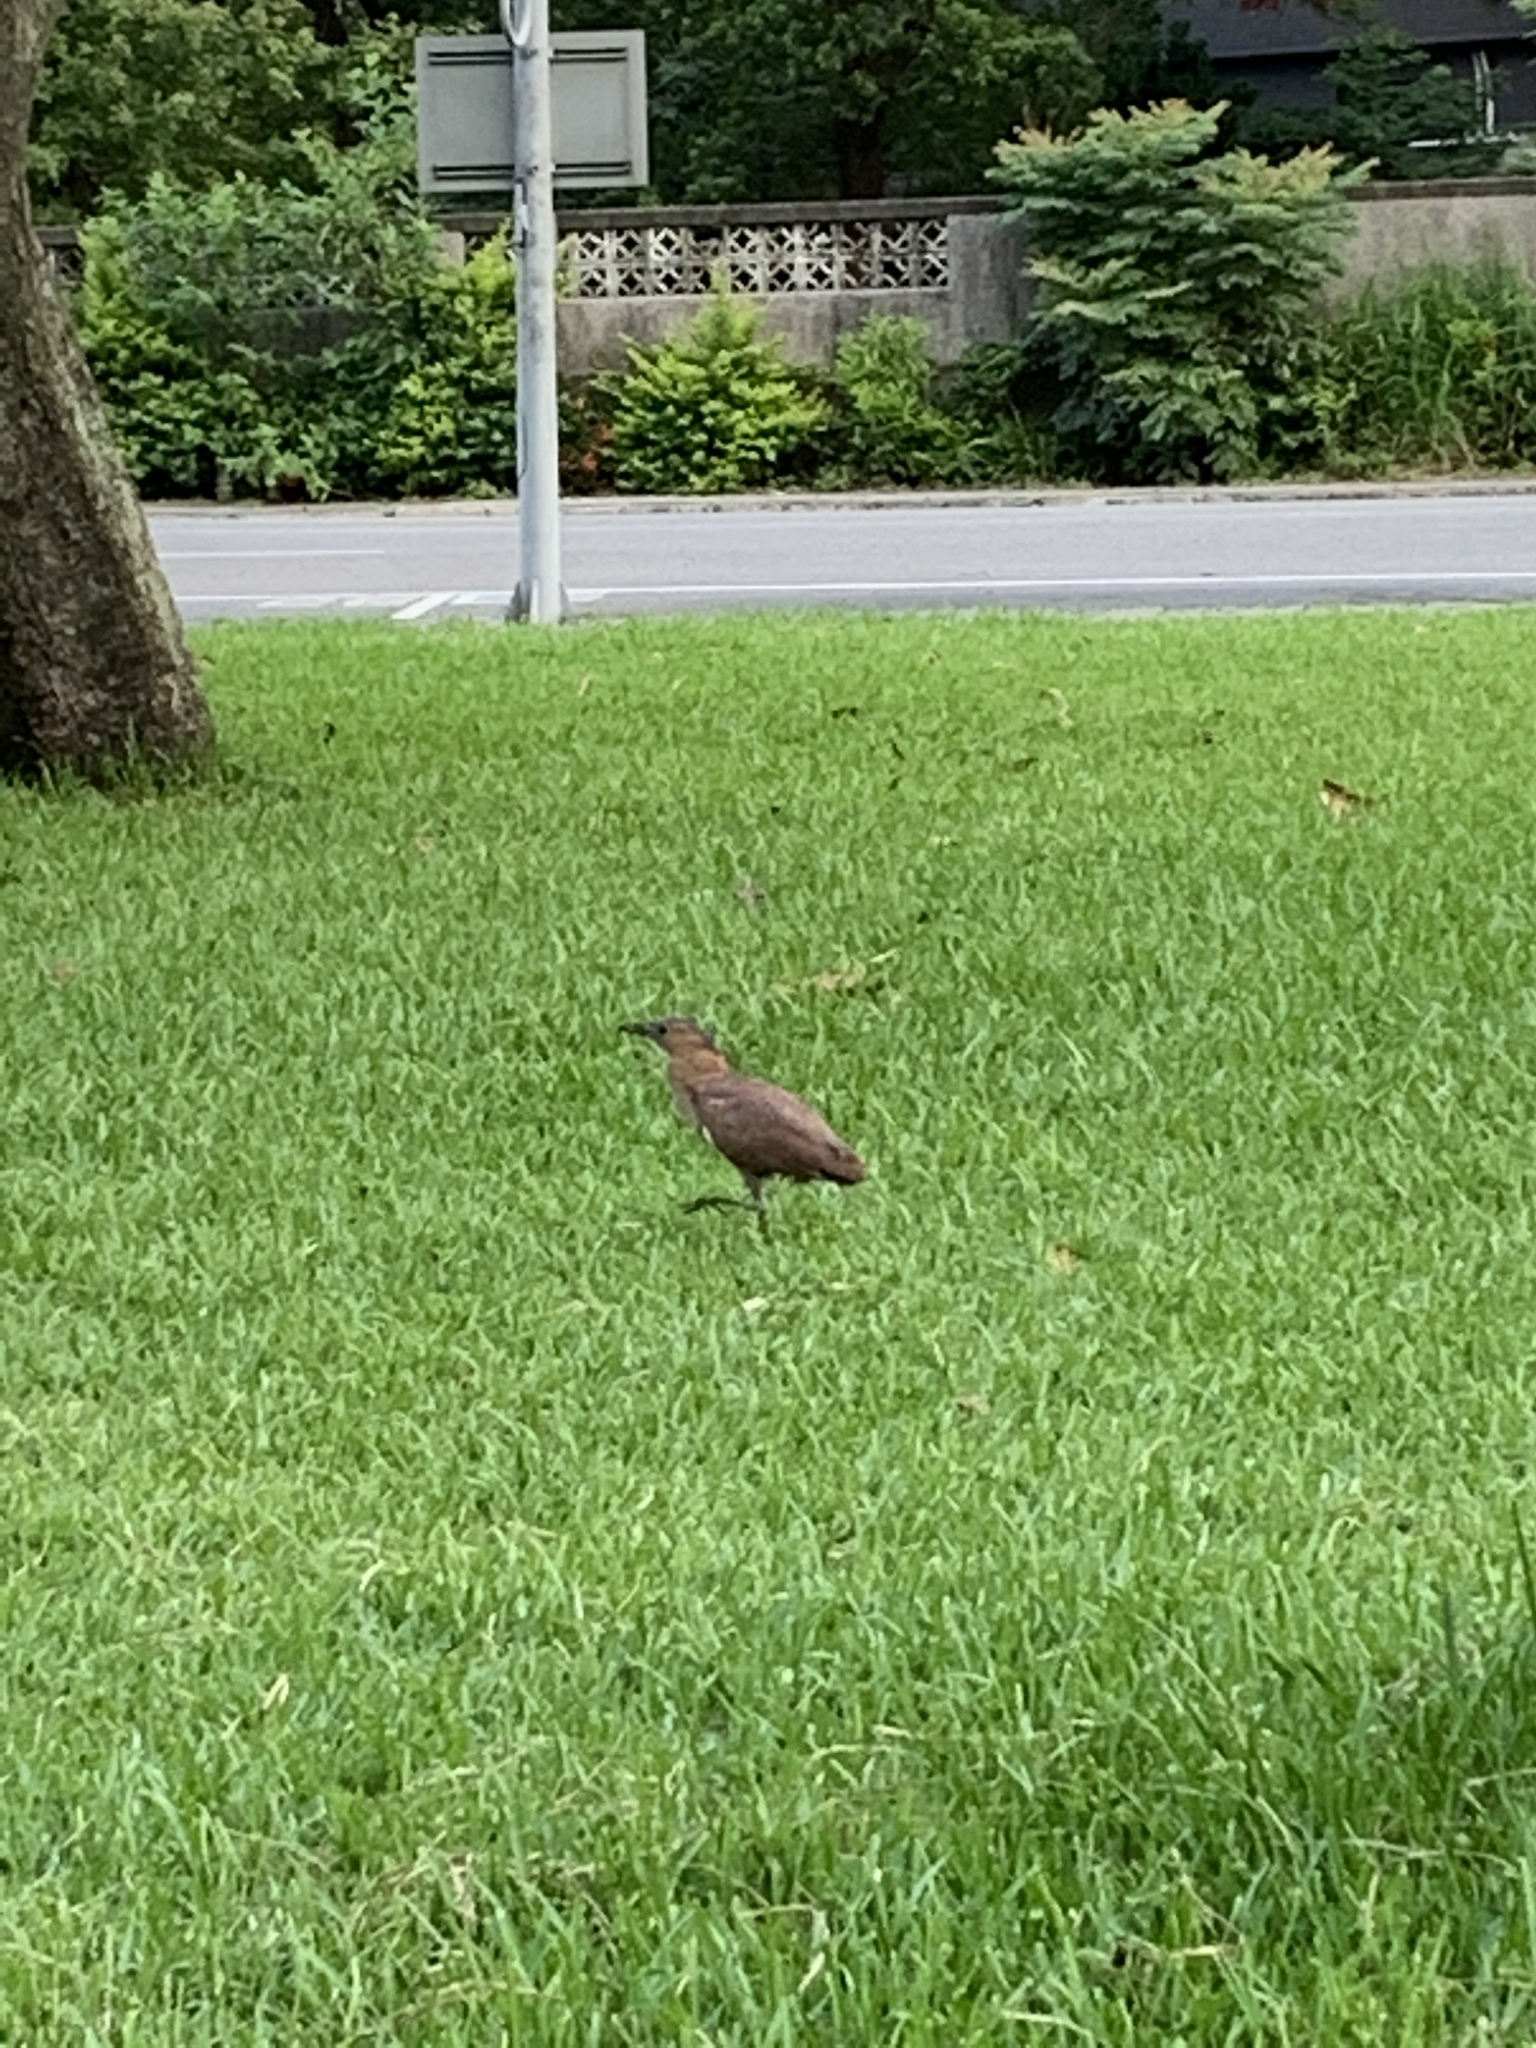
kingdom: Animalia
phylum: Chordata
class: Aves
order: Pelecaniformes
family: Ardeidae
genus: Gorsachius
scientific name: Gorsachius melanolophus
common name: Malayan night heron
